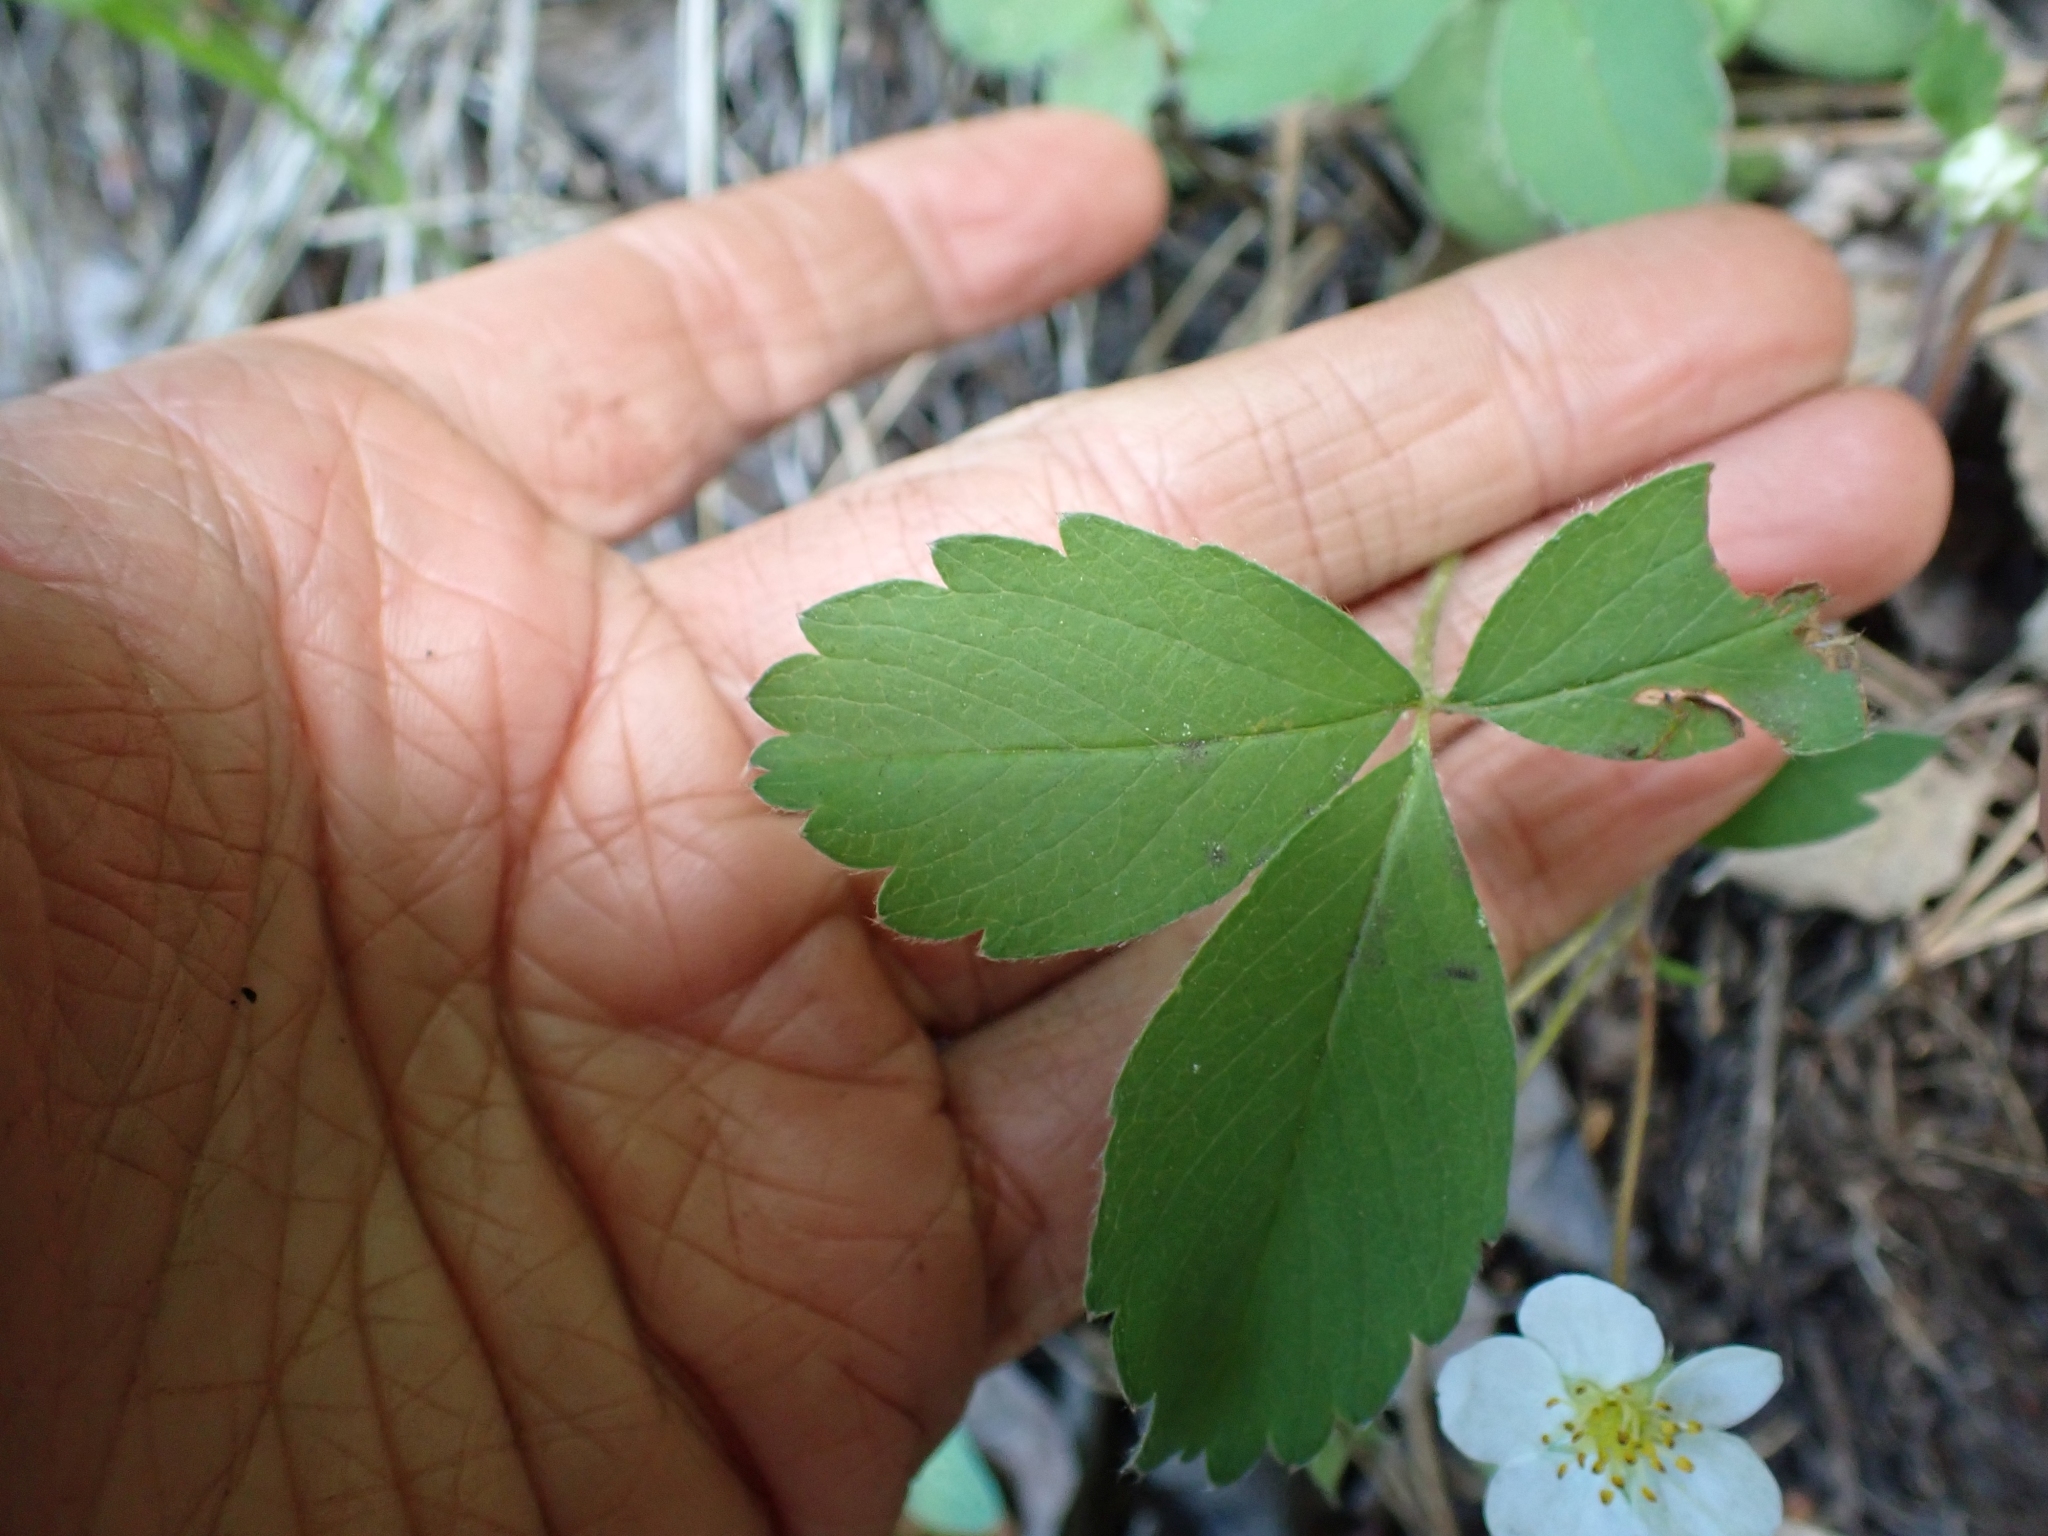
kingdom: Plantae
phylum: Tracheophyta
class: Magnoliopsida
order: Rosales
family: Rosaceae
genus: Fragaria
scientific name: Fragaria virginiana
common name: Thickleaved wild strawberry
